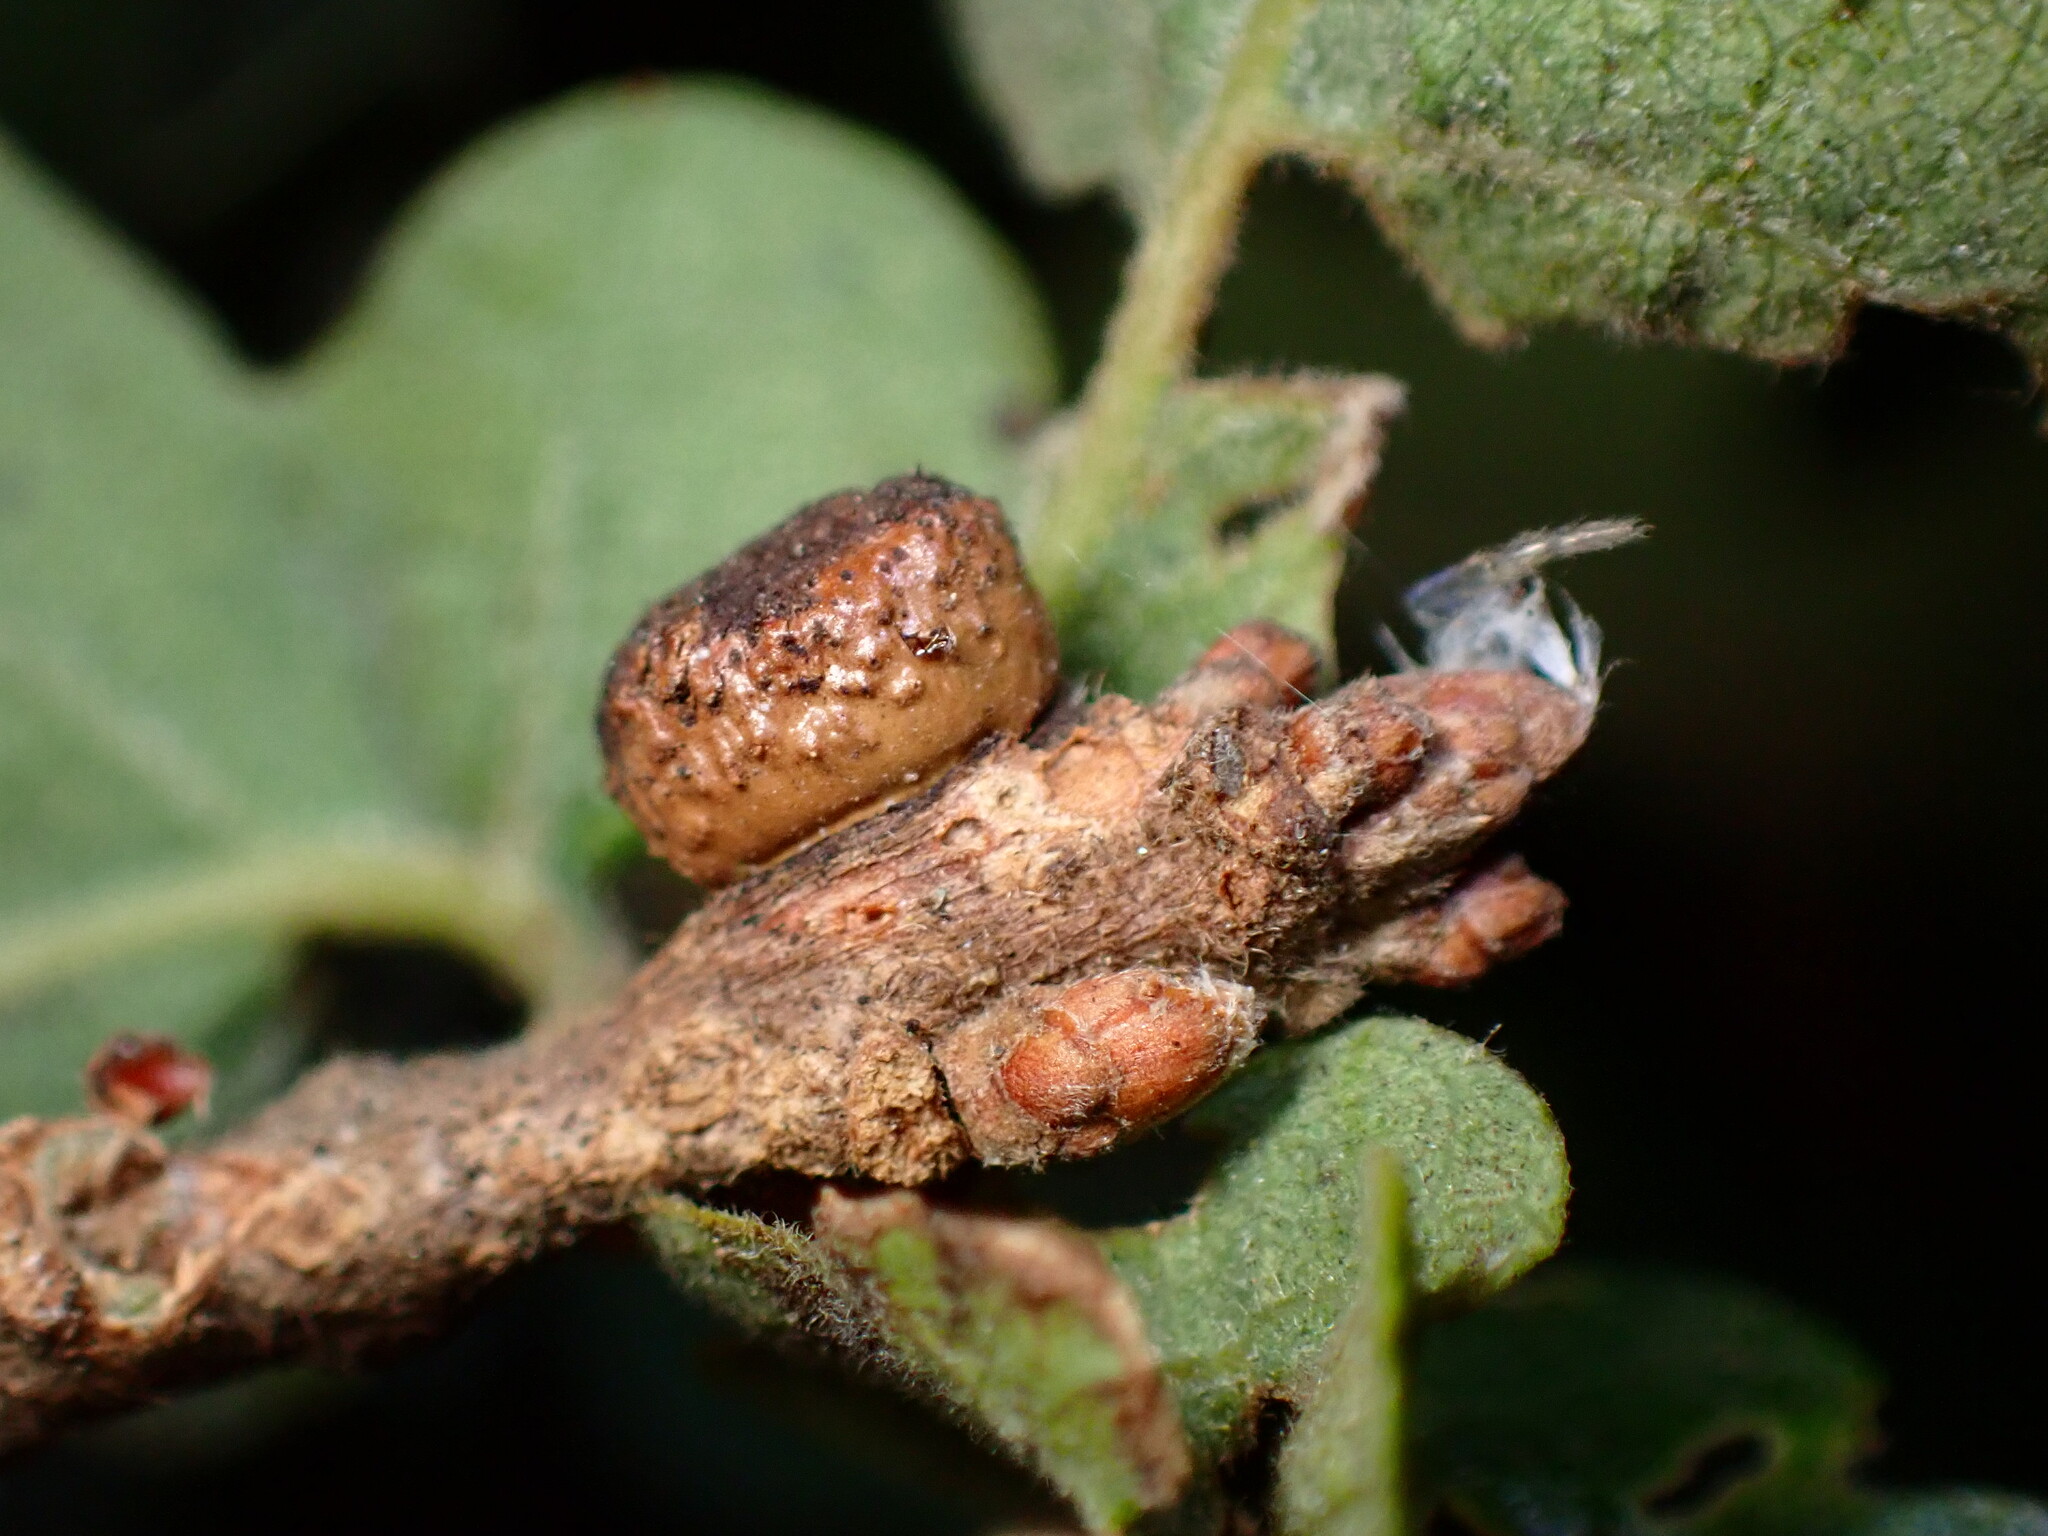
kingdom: Animalia
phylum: Arthropoda
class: Insecta
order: Hymenoptera
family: Cynipidae
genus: Disholcaspis
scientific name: Disholcaspis
